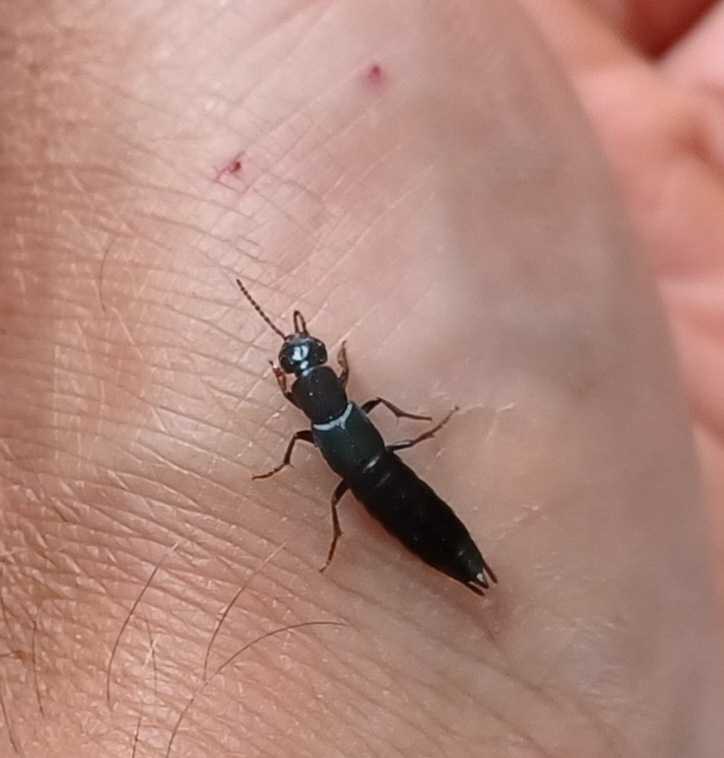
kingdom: Animalia
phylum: Arthropoda
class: Insecta
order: Coleoptera
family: Staphylinidae
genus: Tasgius
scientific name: Tasgius ater
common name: Staph beetle
